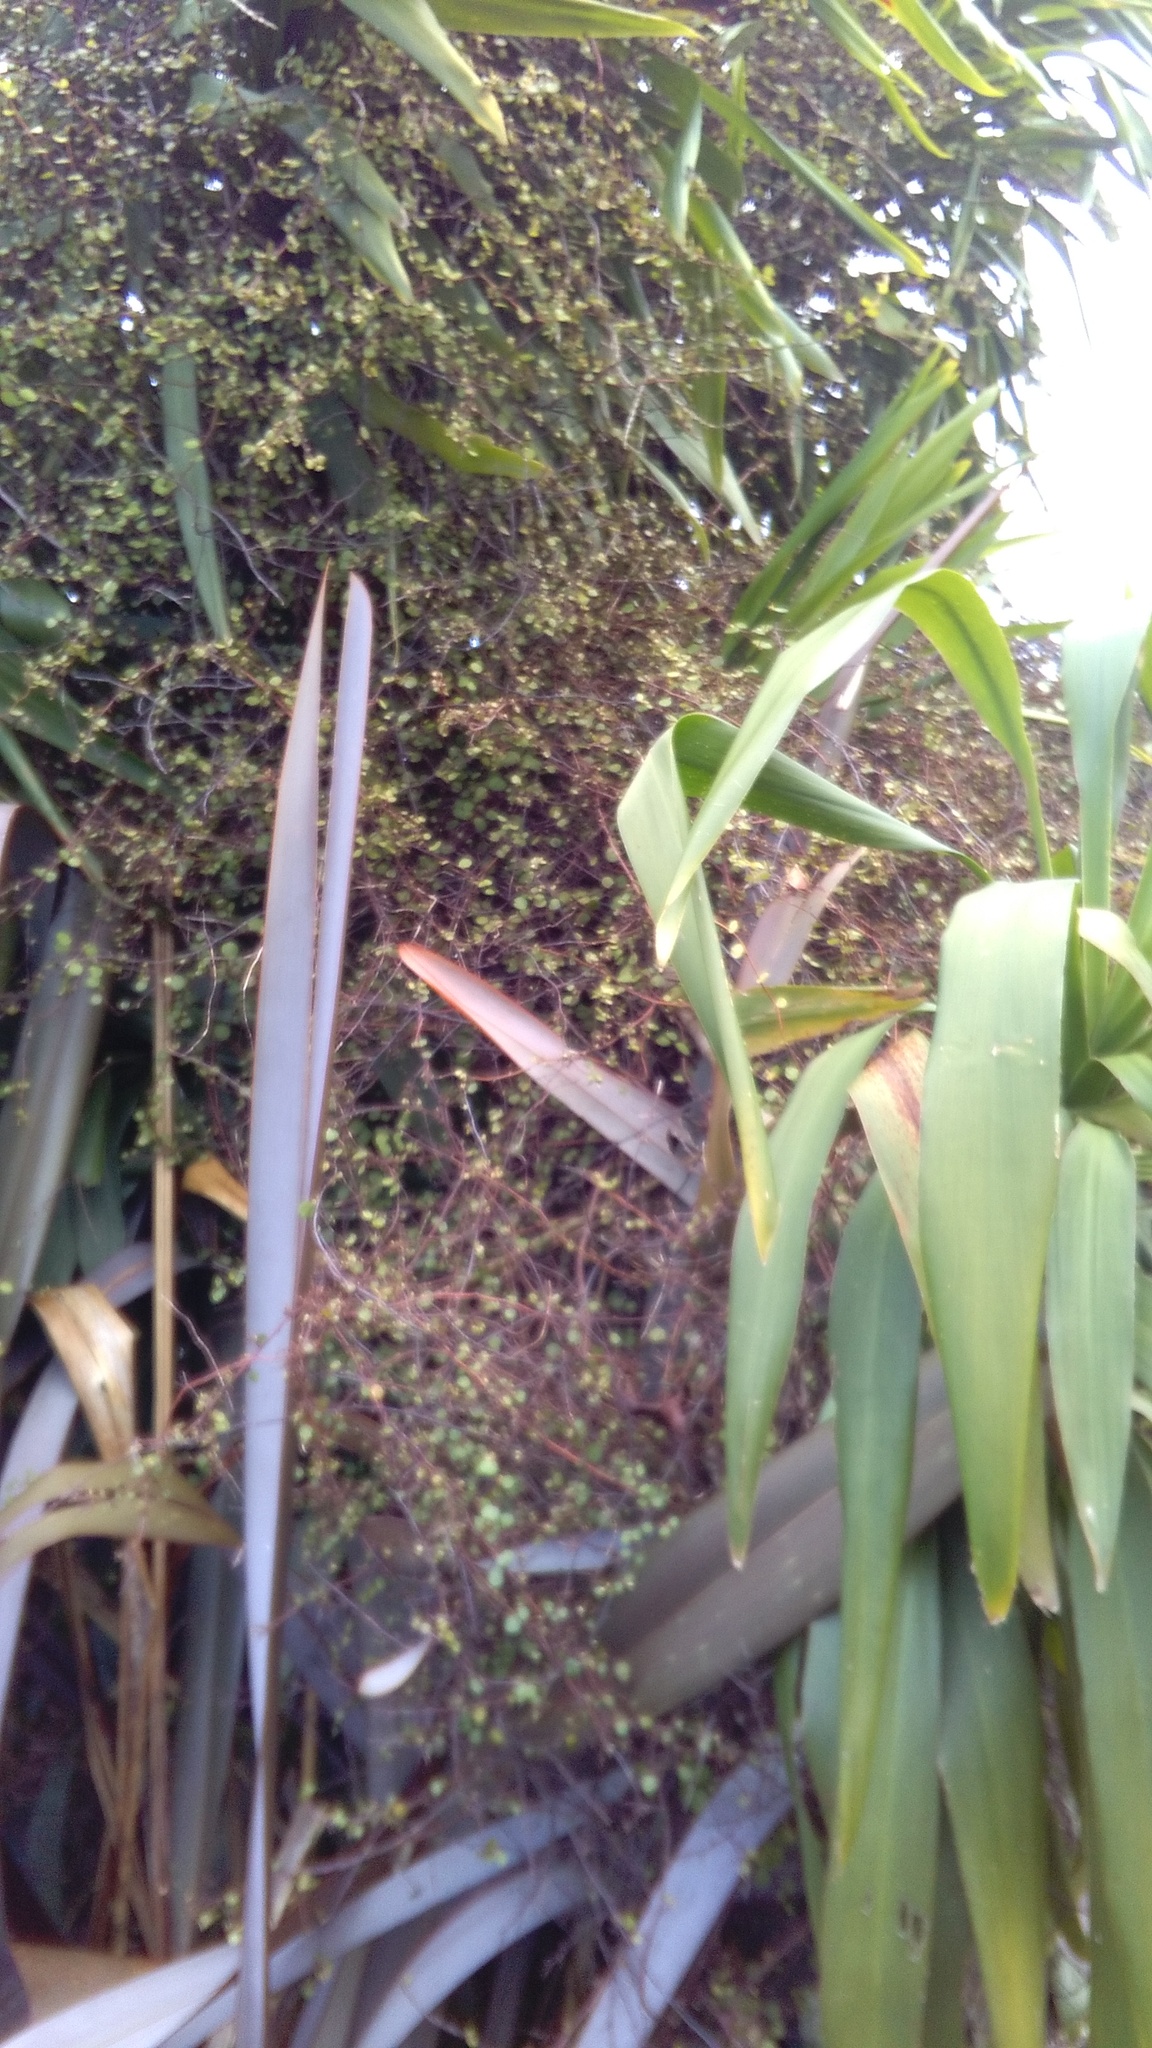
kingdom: Plantae
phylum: Tracheophyta
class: Magnoliopsida
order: Caryophyllales
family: Polygonaceae
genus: Muehlenbeckia
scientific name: Muehlenbeckia complexa
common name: Wireplant
